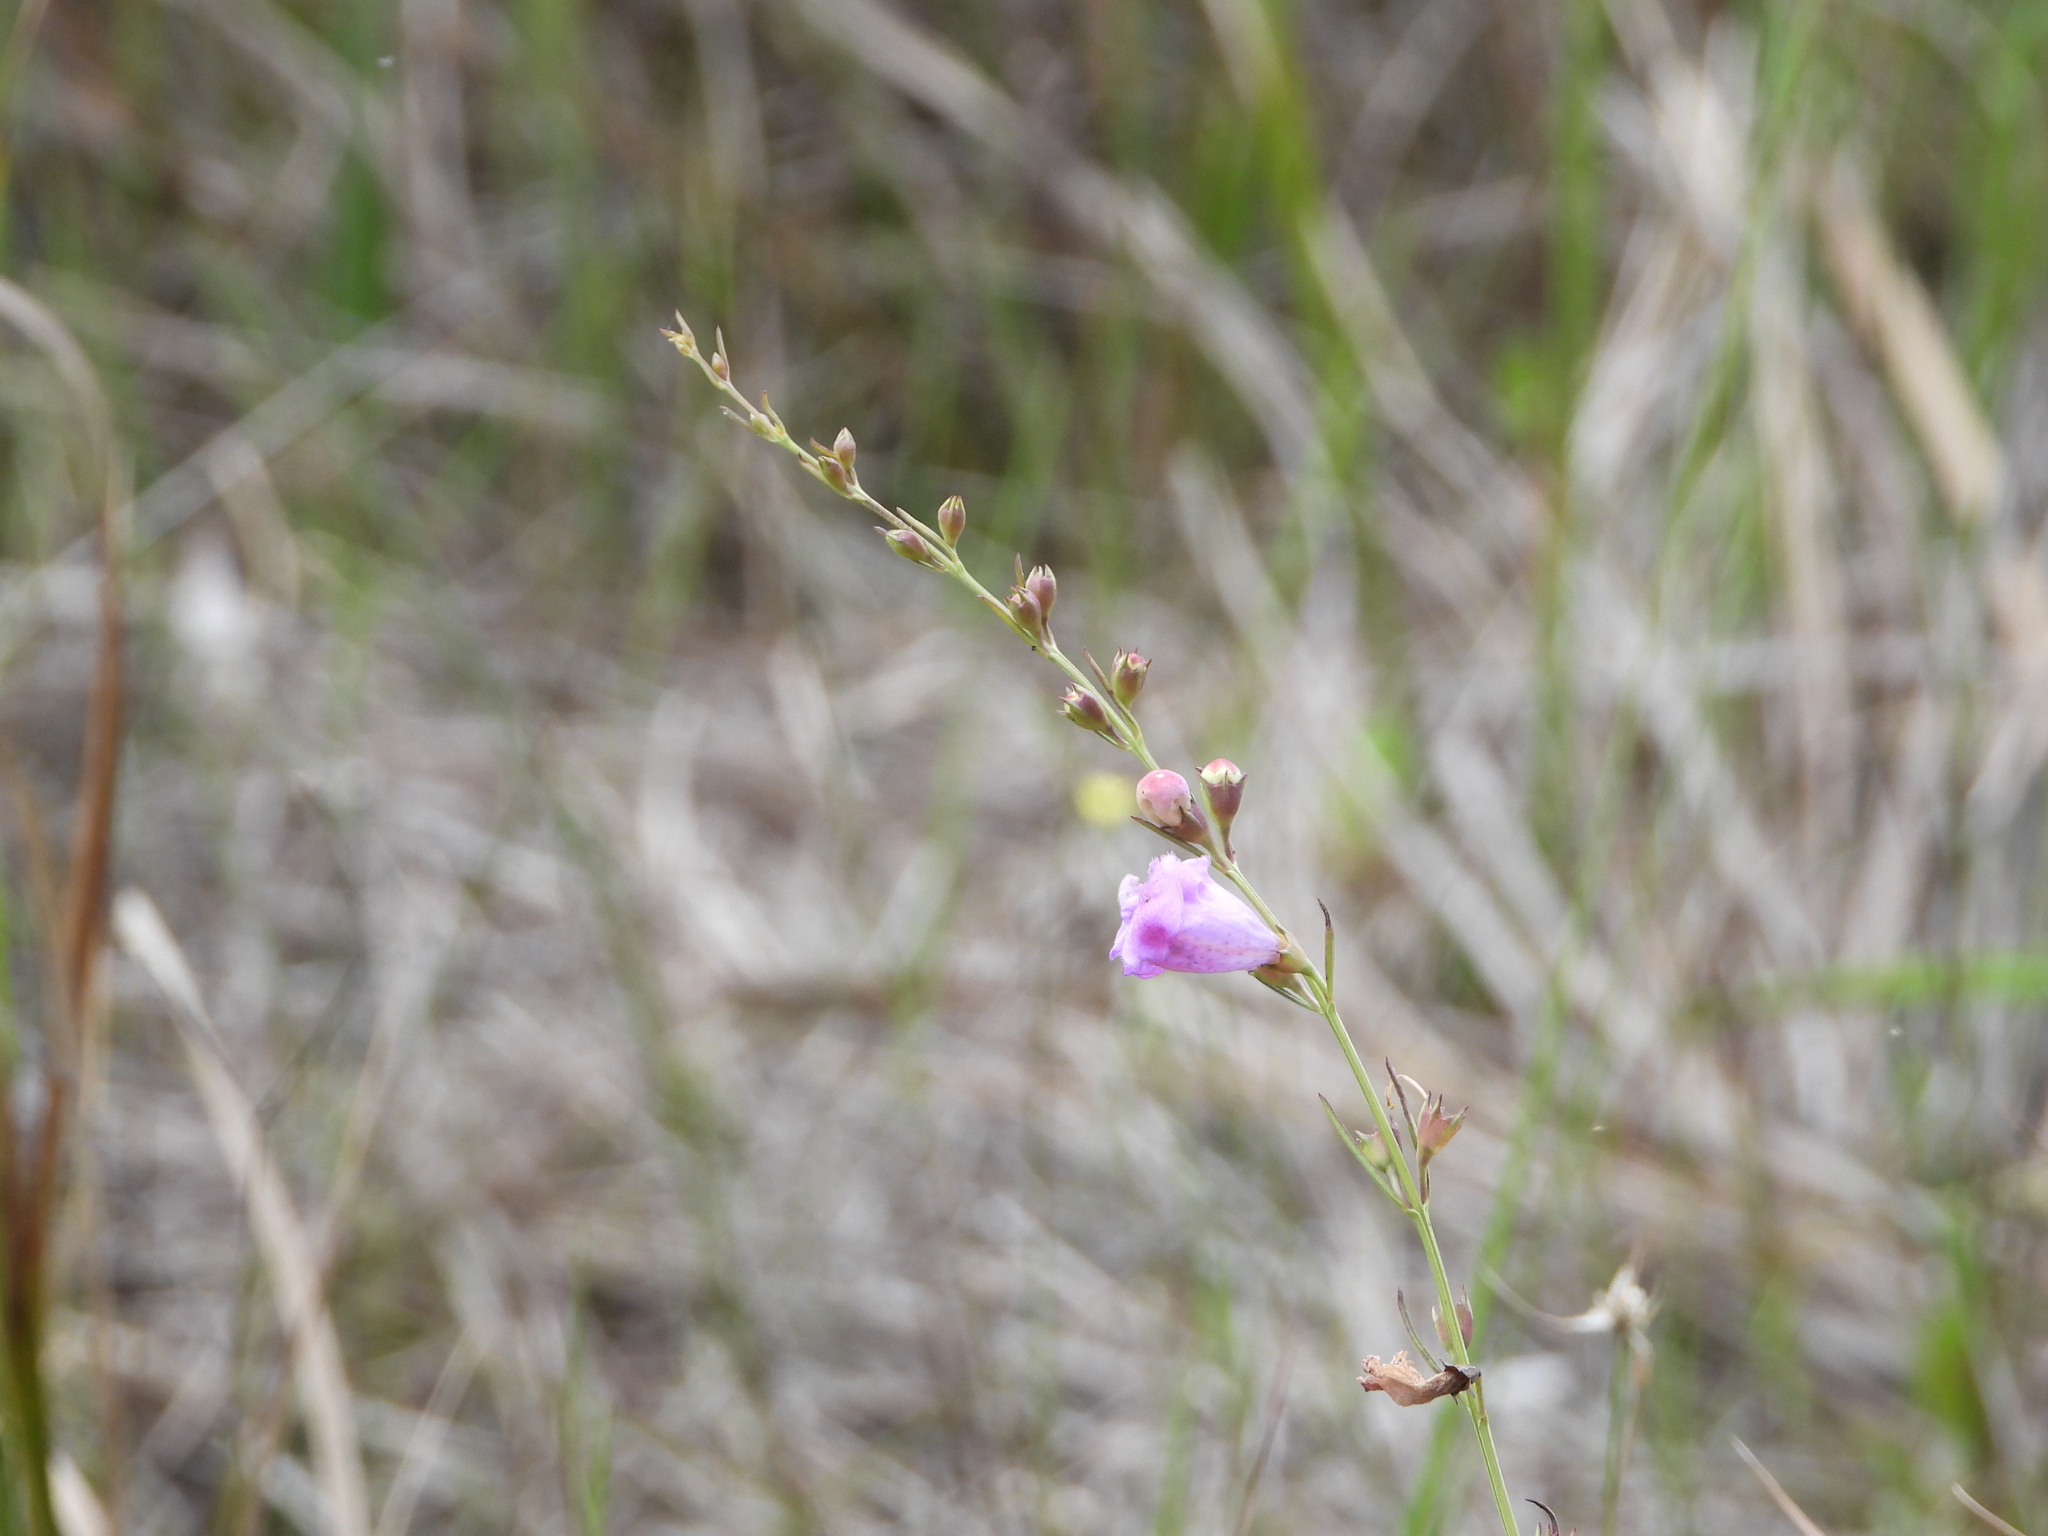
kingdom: Plantae
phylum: Tracheophyta
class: Magnoliopsida
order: Lamiales
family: Orobanchaceae
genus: Agalinis
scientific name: Agalinis maritima
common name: Saltmarsh agalinis
